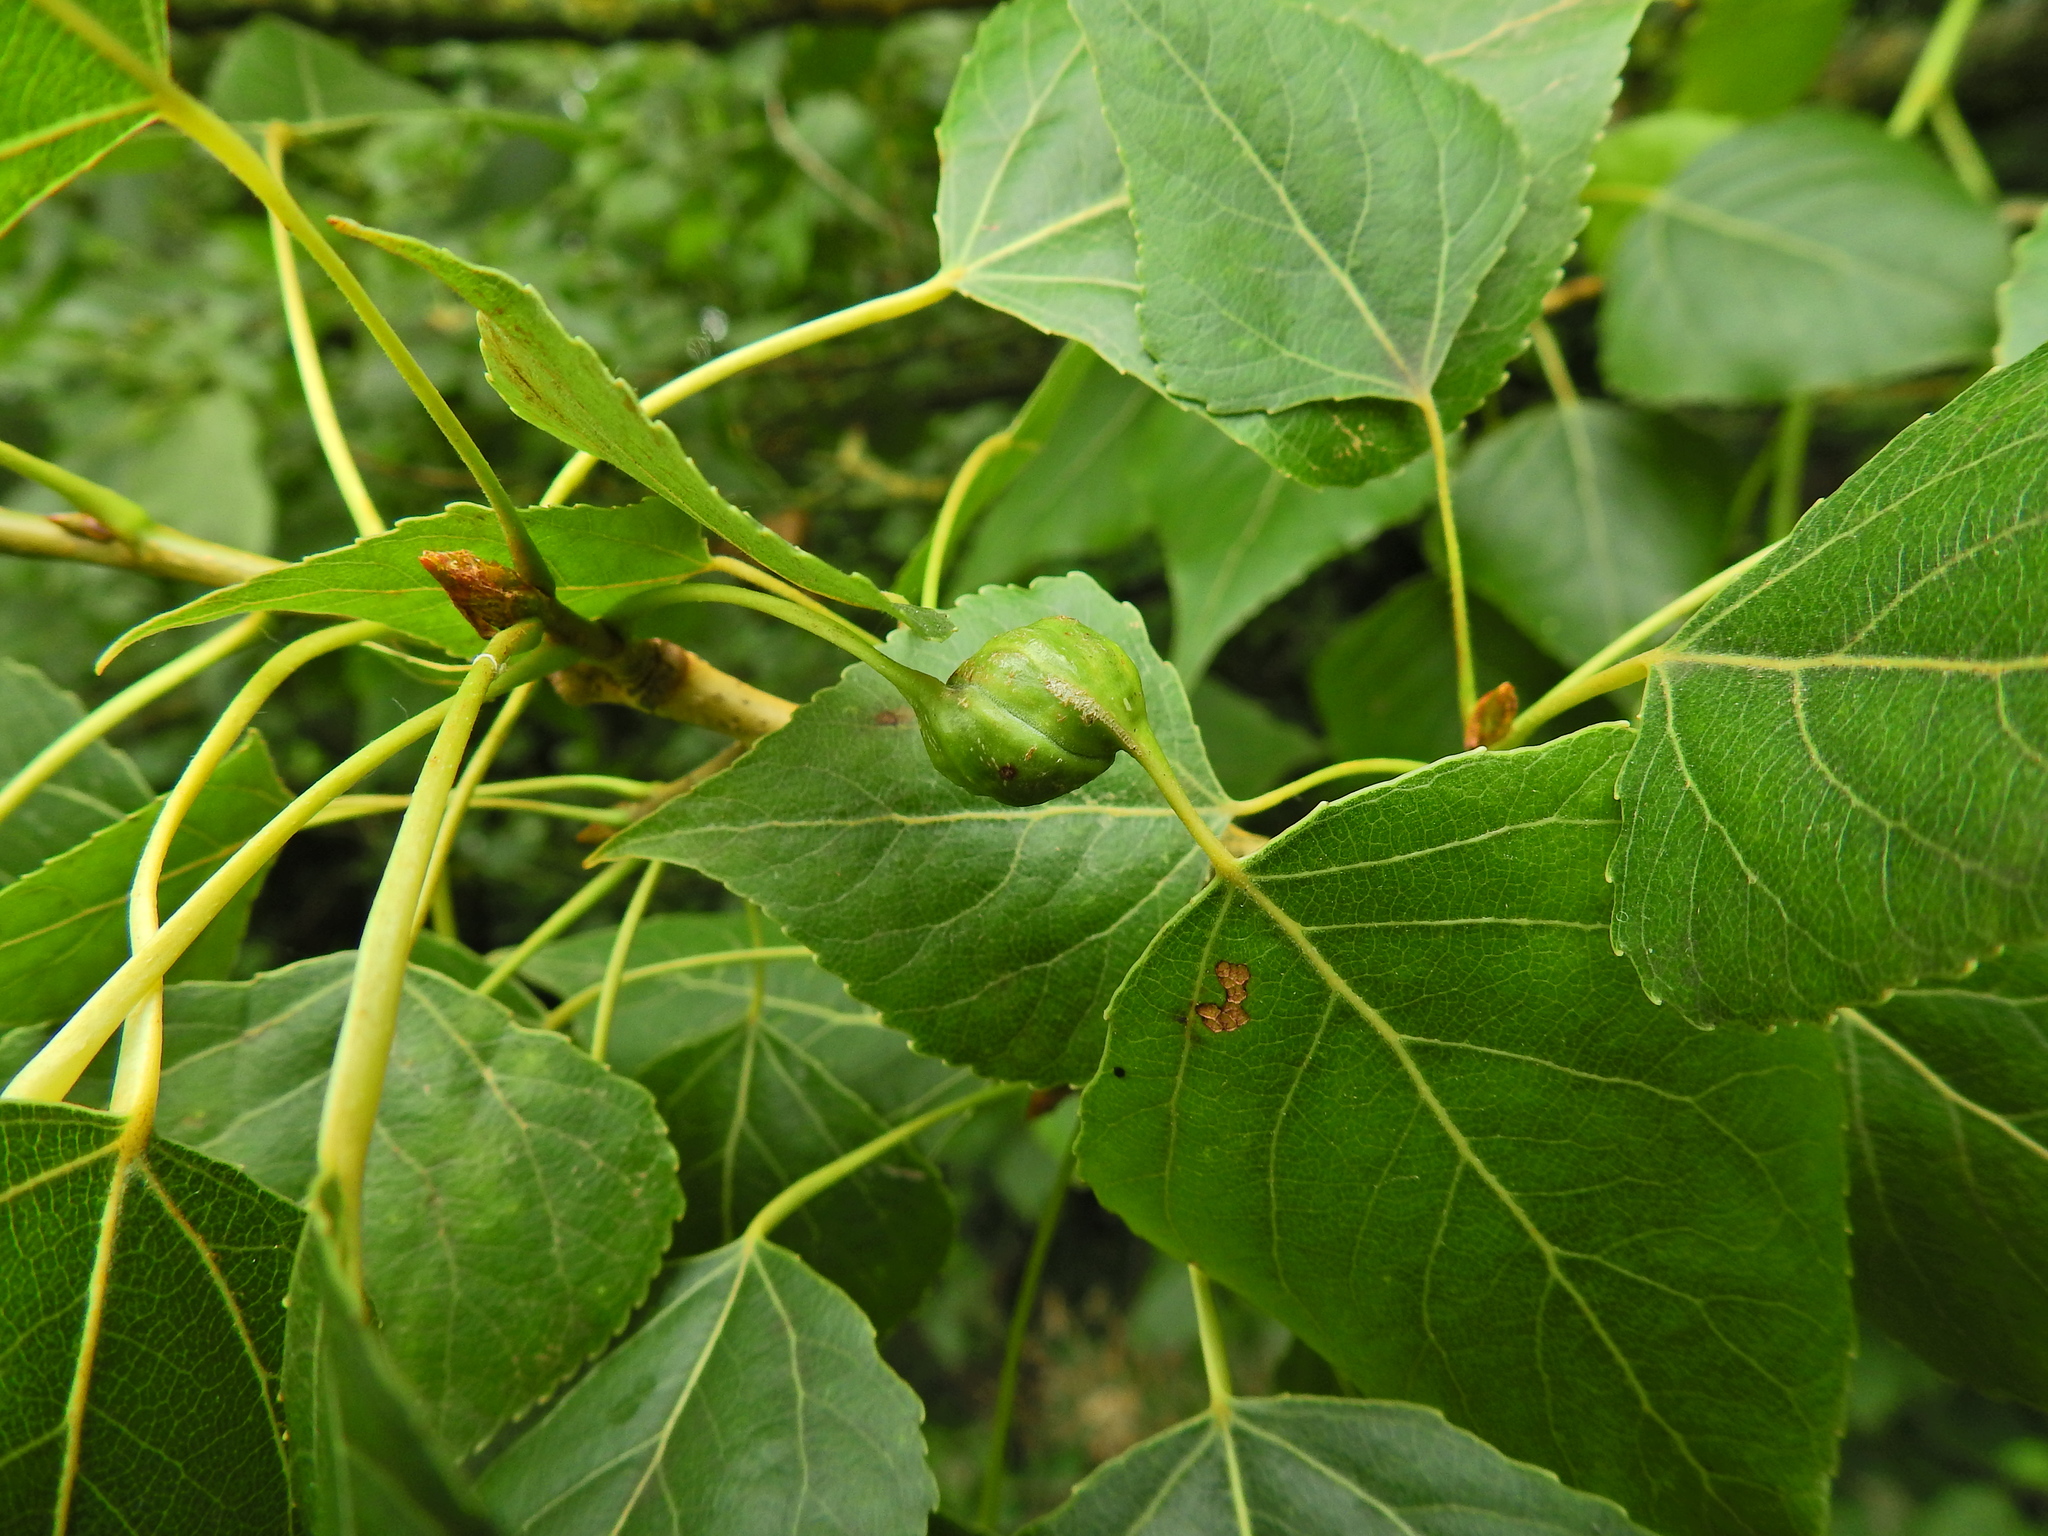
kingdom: Animalia
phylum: Arthropoda
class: Insecta
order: Hemiptera
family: Aphididae
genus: Pemphigus
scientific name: Pemphigus spyrothecae
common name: Aphid
